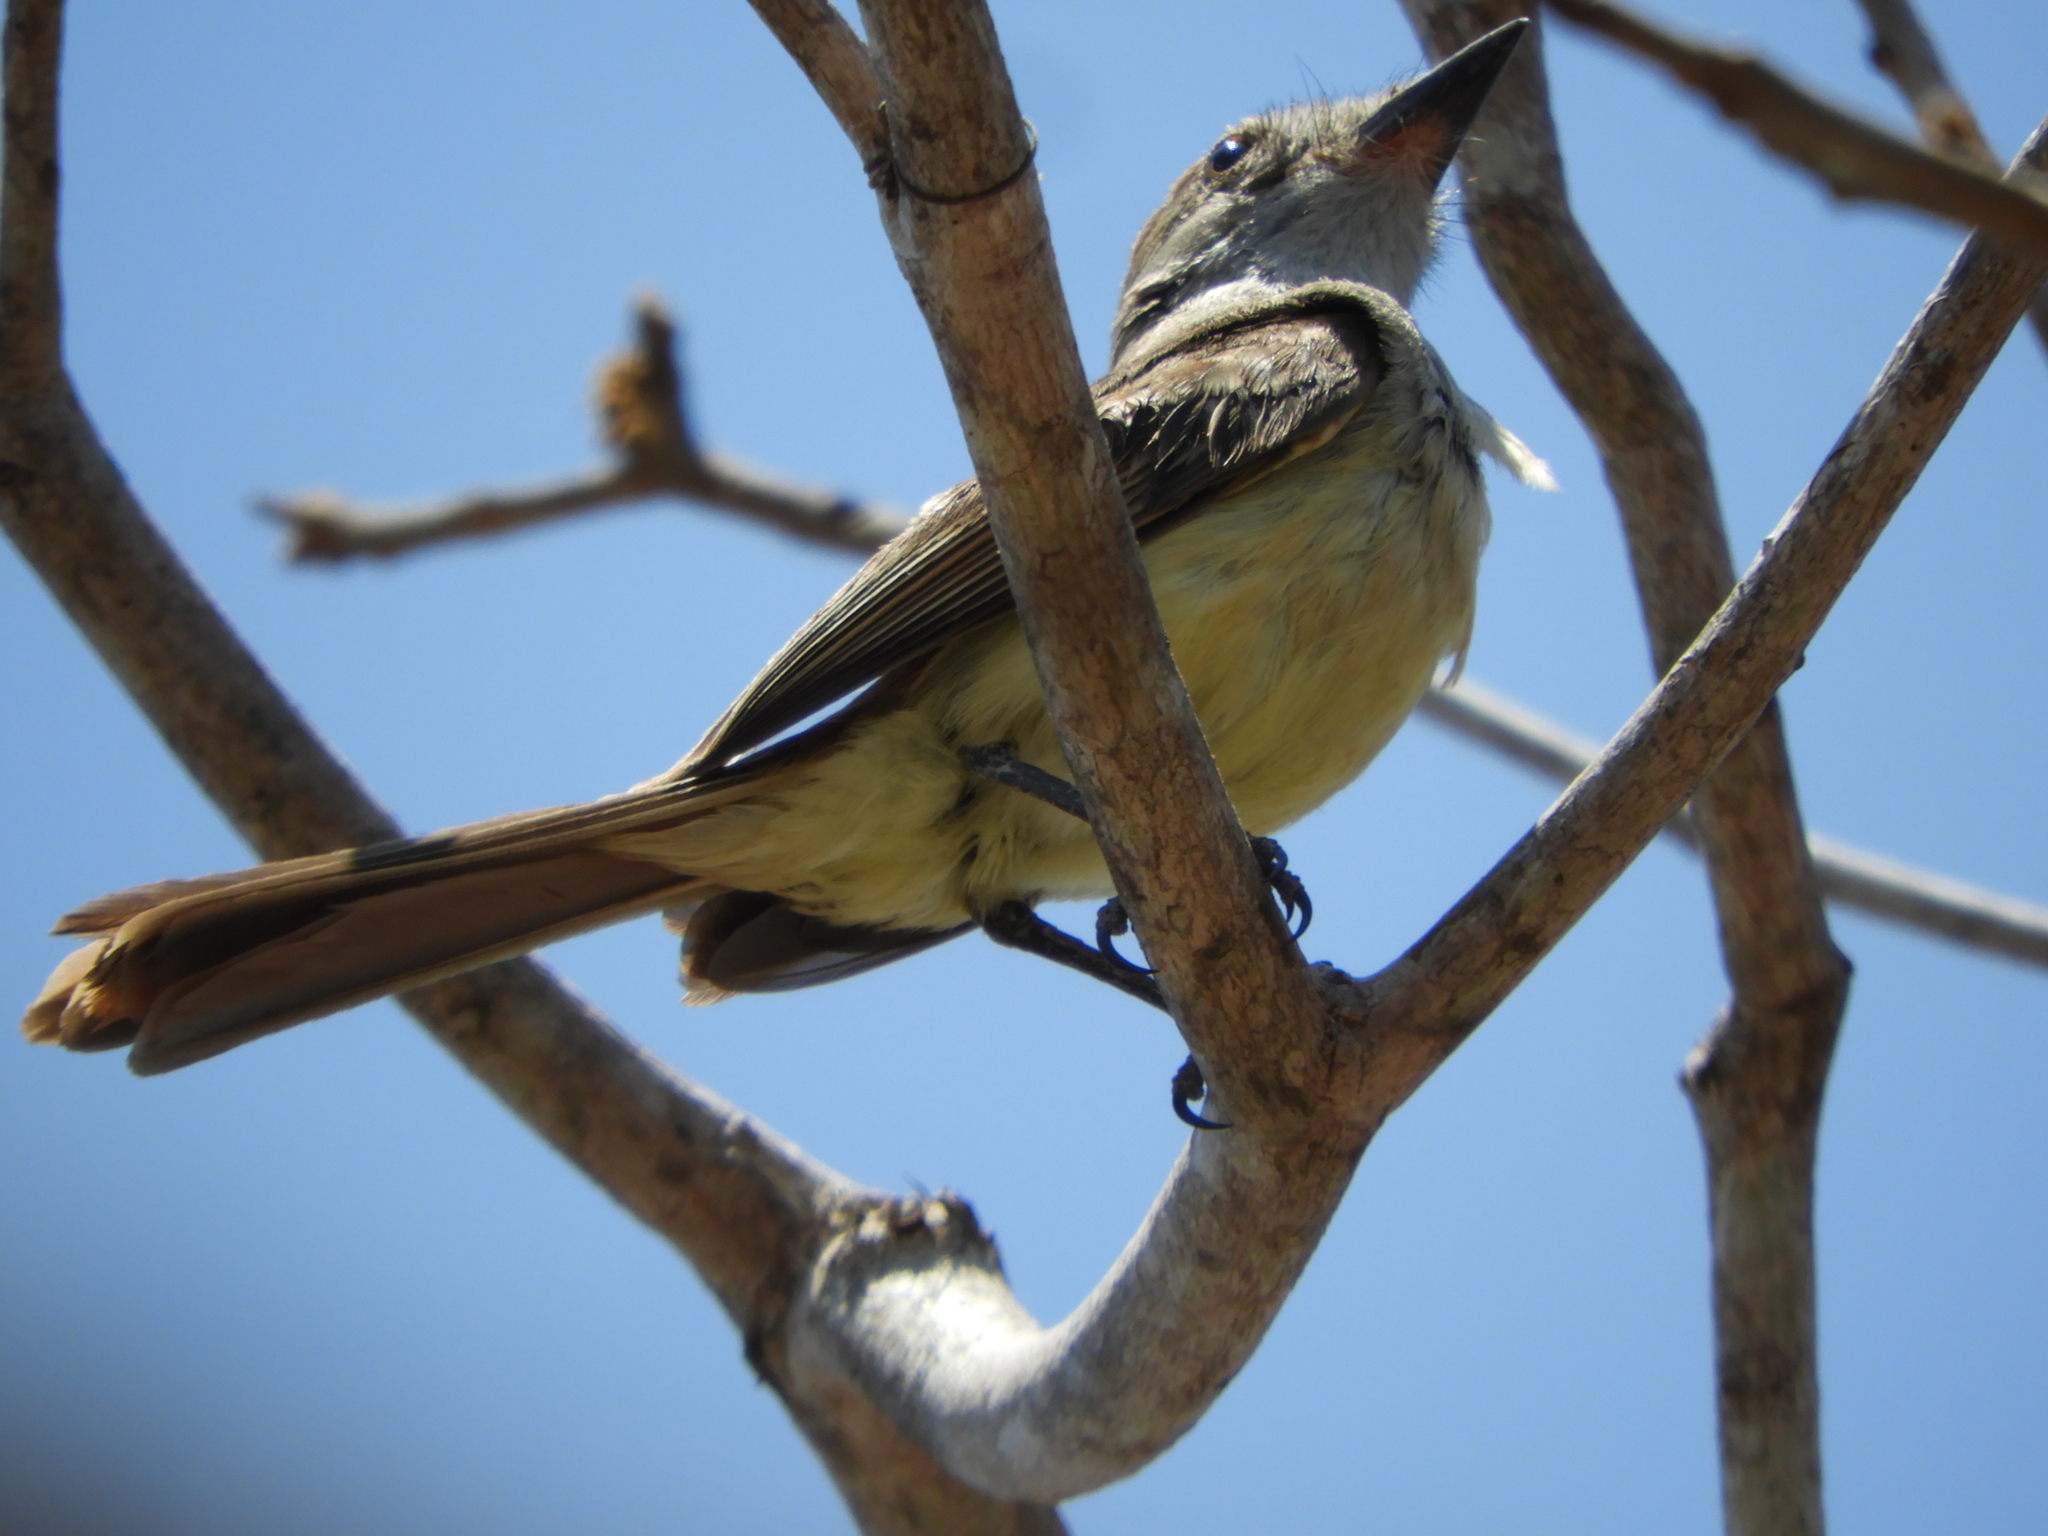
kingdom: Animalia
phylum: Chordata
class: Aves
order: Passeriformes
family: Tyrannidae
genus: Myiarchus
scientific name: Myiarchus nuttingi
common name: Nutting's flycatcher
